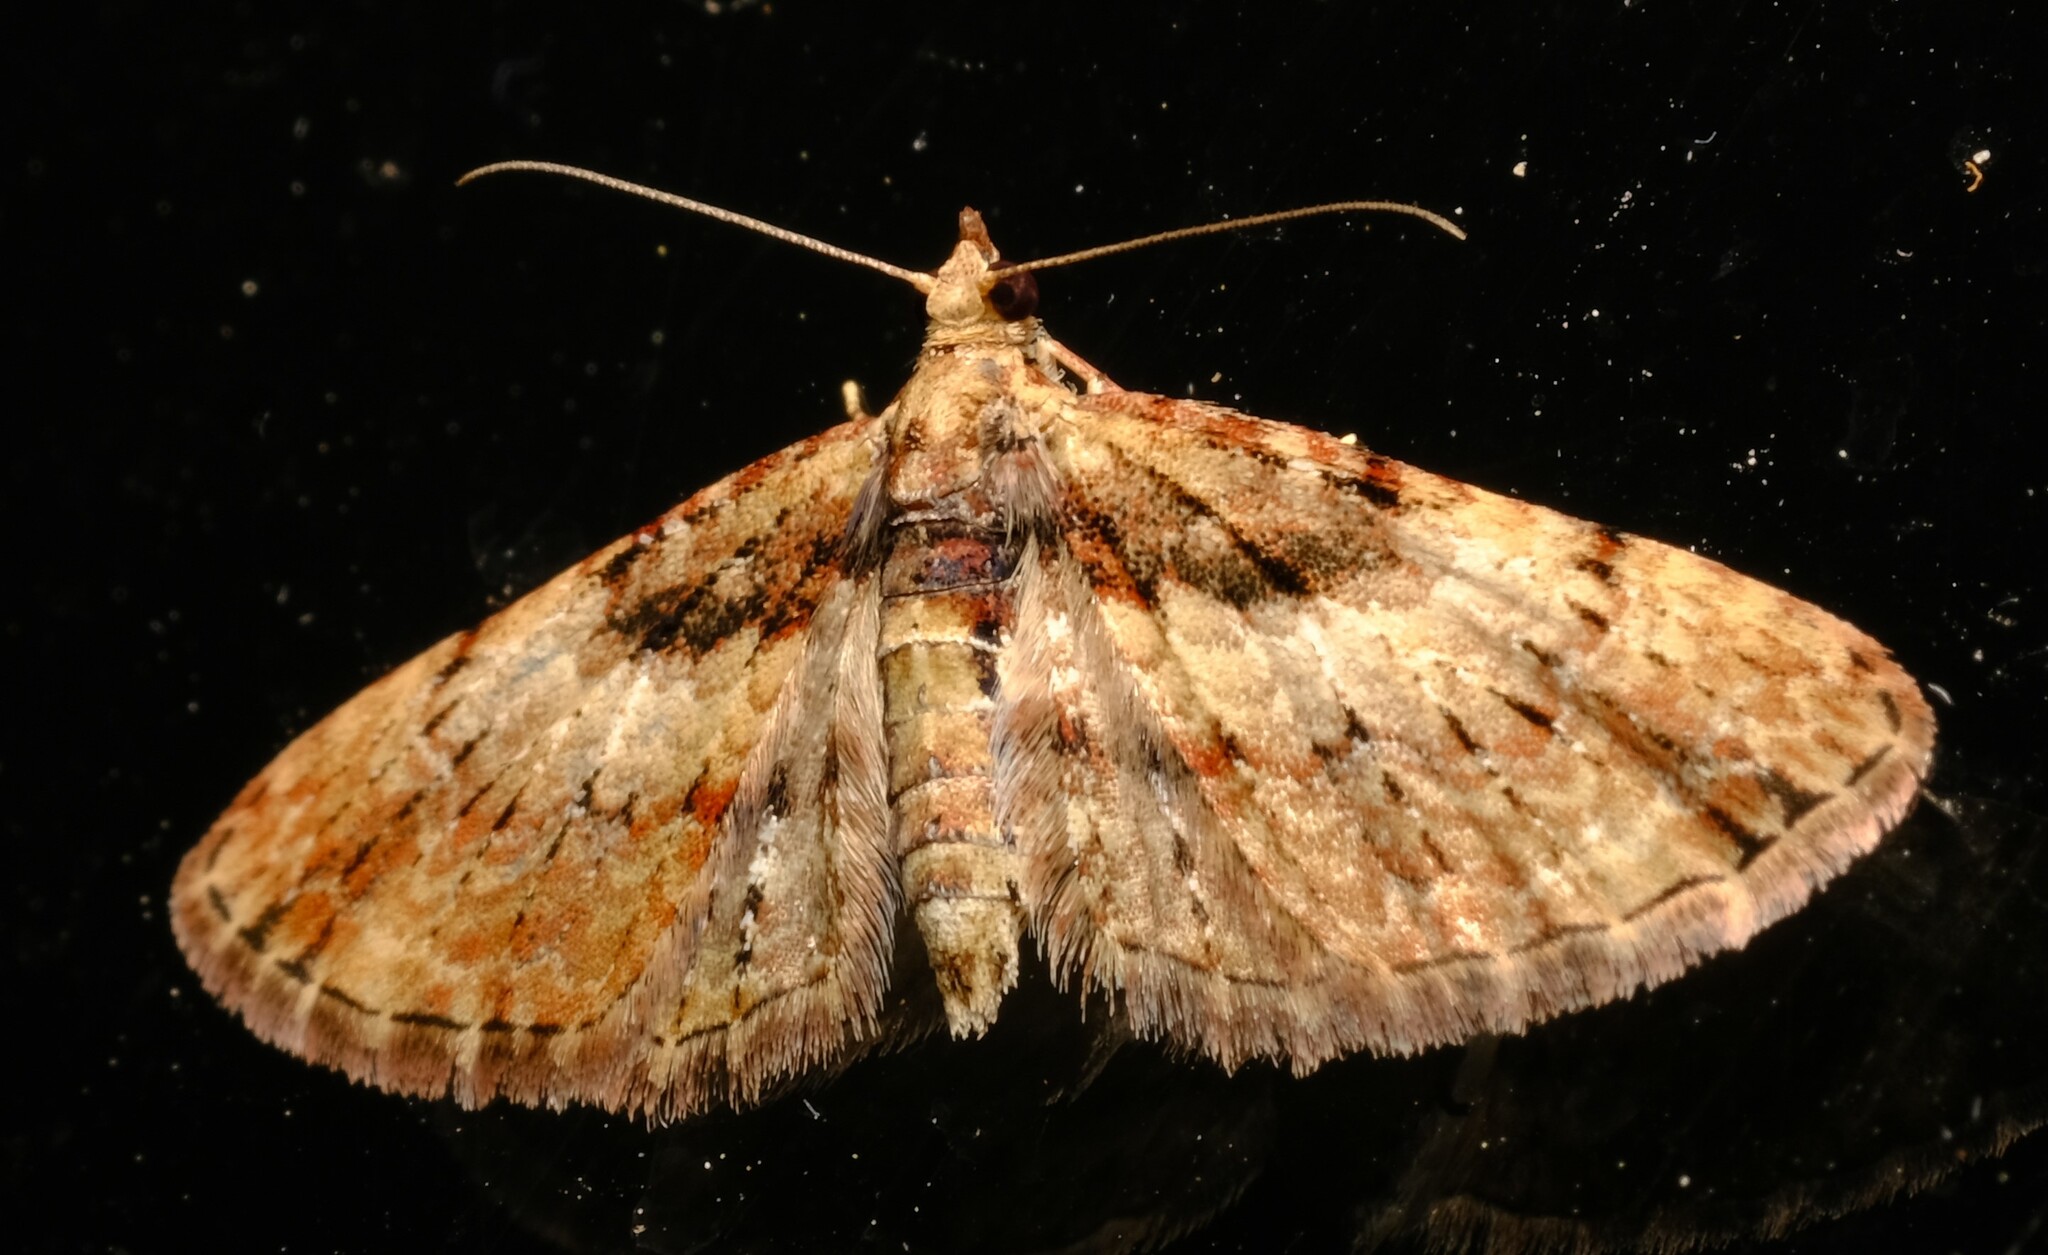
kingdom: Animalia
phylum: Arthropoda
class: Insecta
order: Lepidoptera
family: Geometridae
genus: Chloroclystis
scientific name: Chloroclystis approximata
